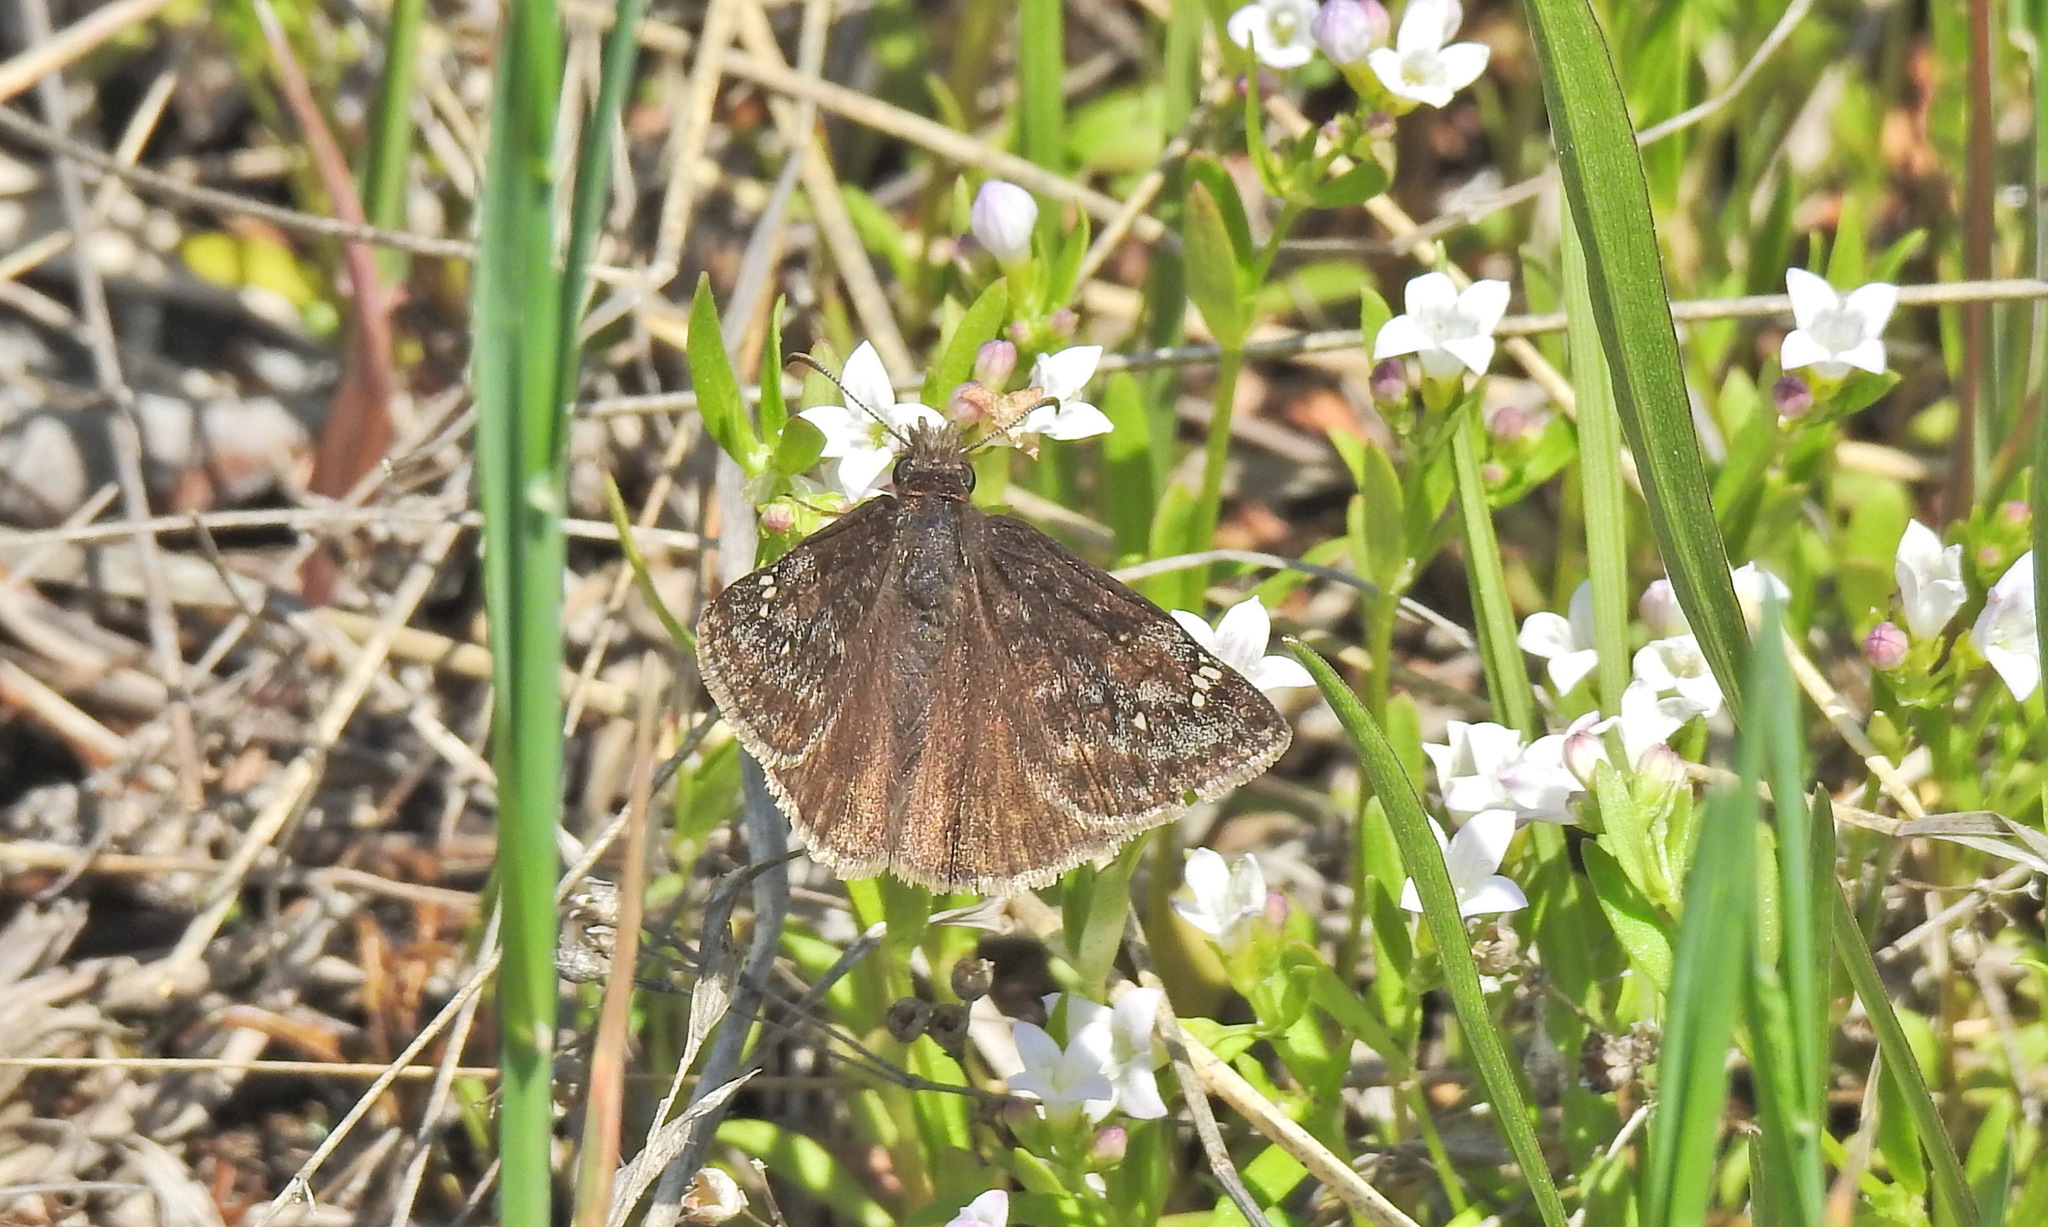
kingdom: Animalia
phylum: Arthropoda
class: Insecta
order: Lepidoptera
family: Hesperiidae
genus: Erynnis
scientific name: Erynnis juvenalis
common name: Juvenal's duskywing
